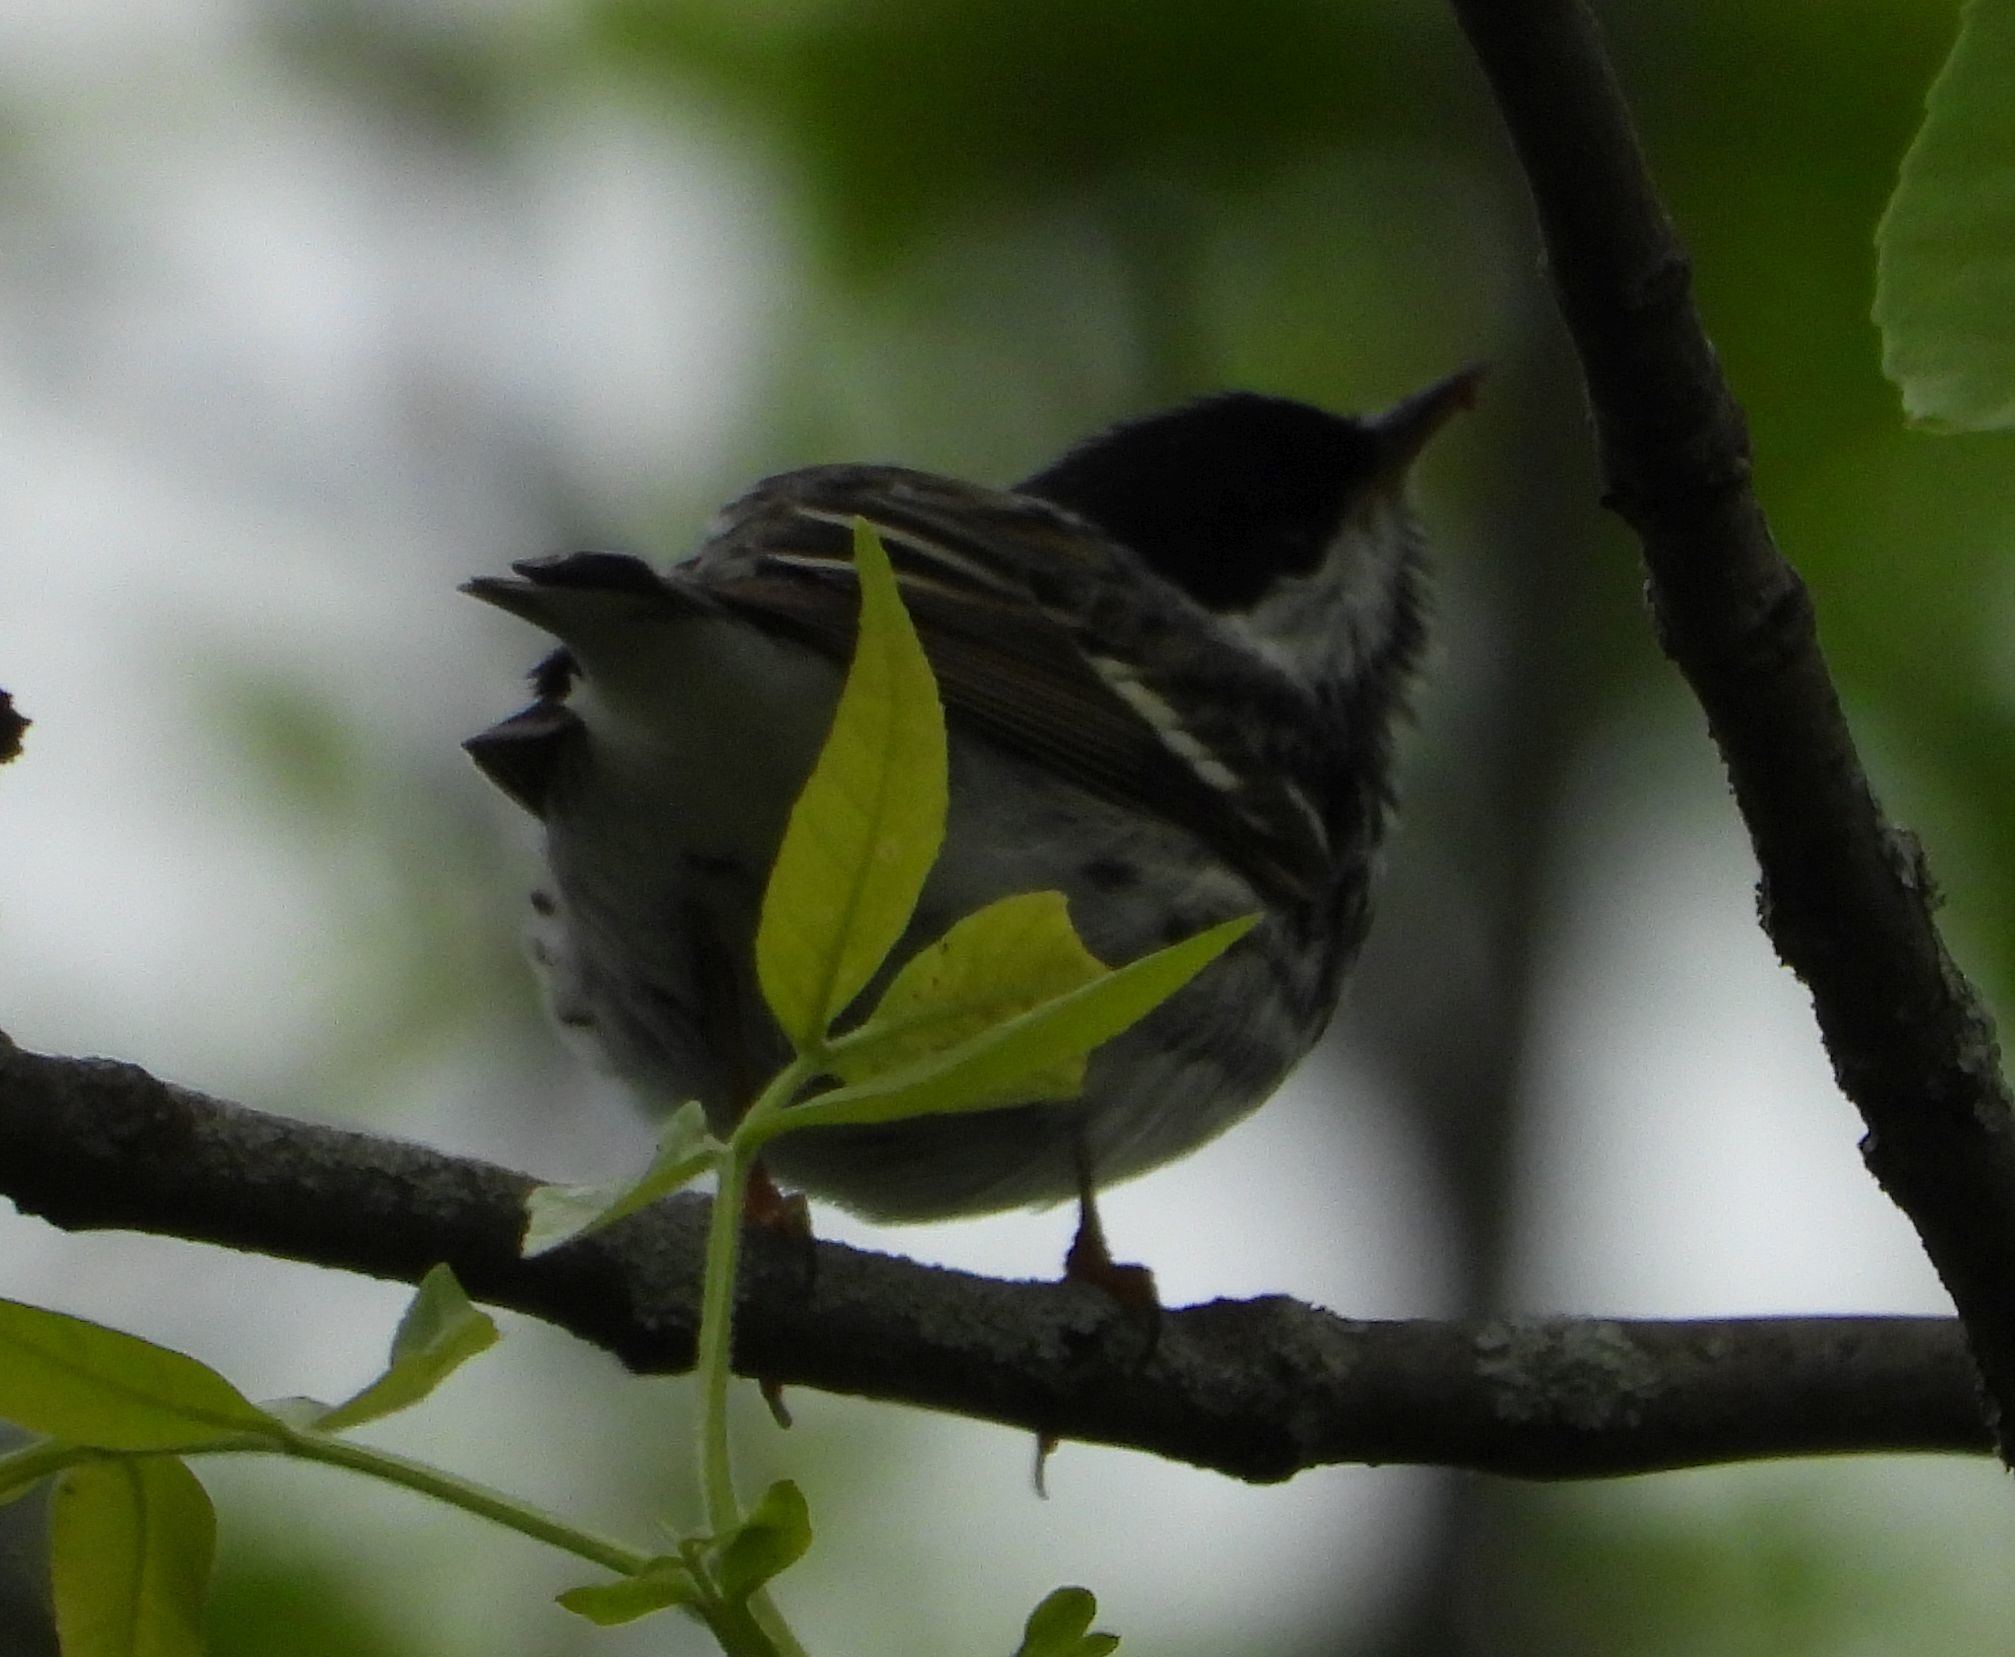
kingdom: Animalia
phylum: Chordata
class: Aves
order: Passeriformes
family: Parulidae
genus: Setophaga
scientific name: Setophaga striata
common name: Blackpoll warbler
